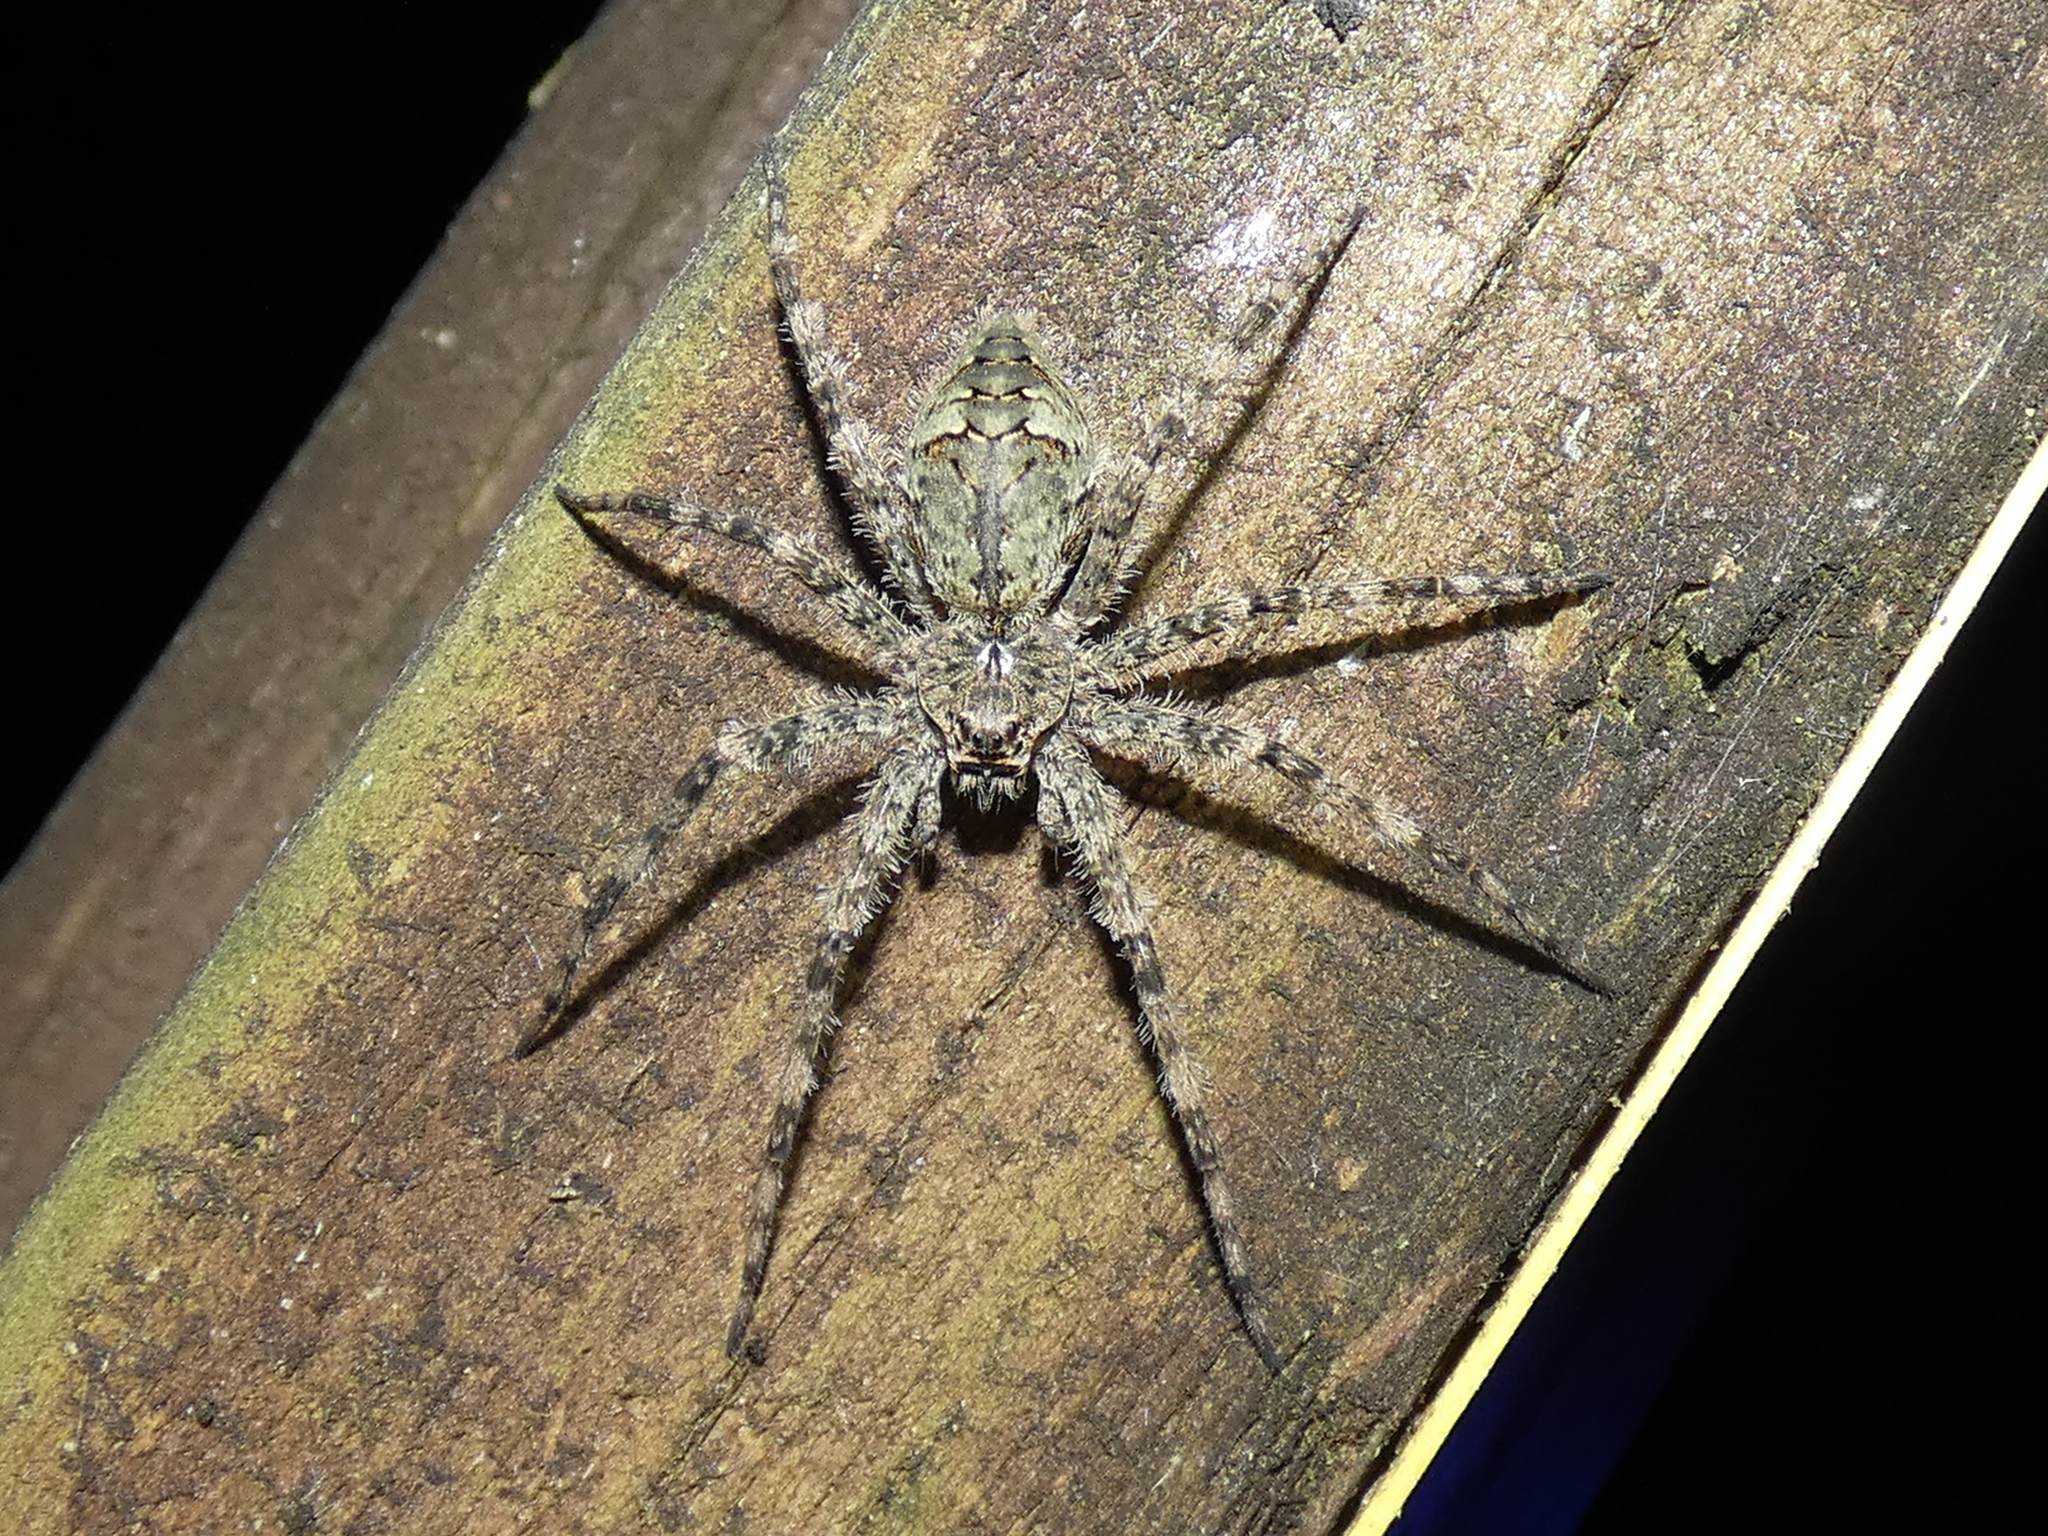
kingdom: Animalia
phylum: Arthropoda
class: Arachnida
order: Araneae
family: Pisauridae
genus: Dolomedes
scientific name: Dolomedes albineus
